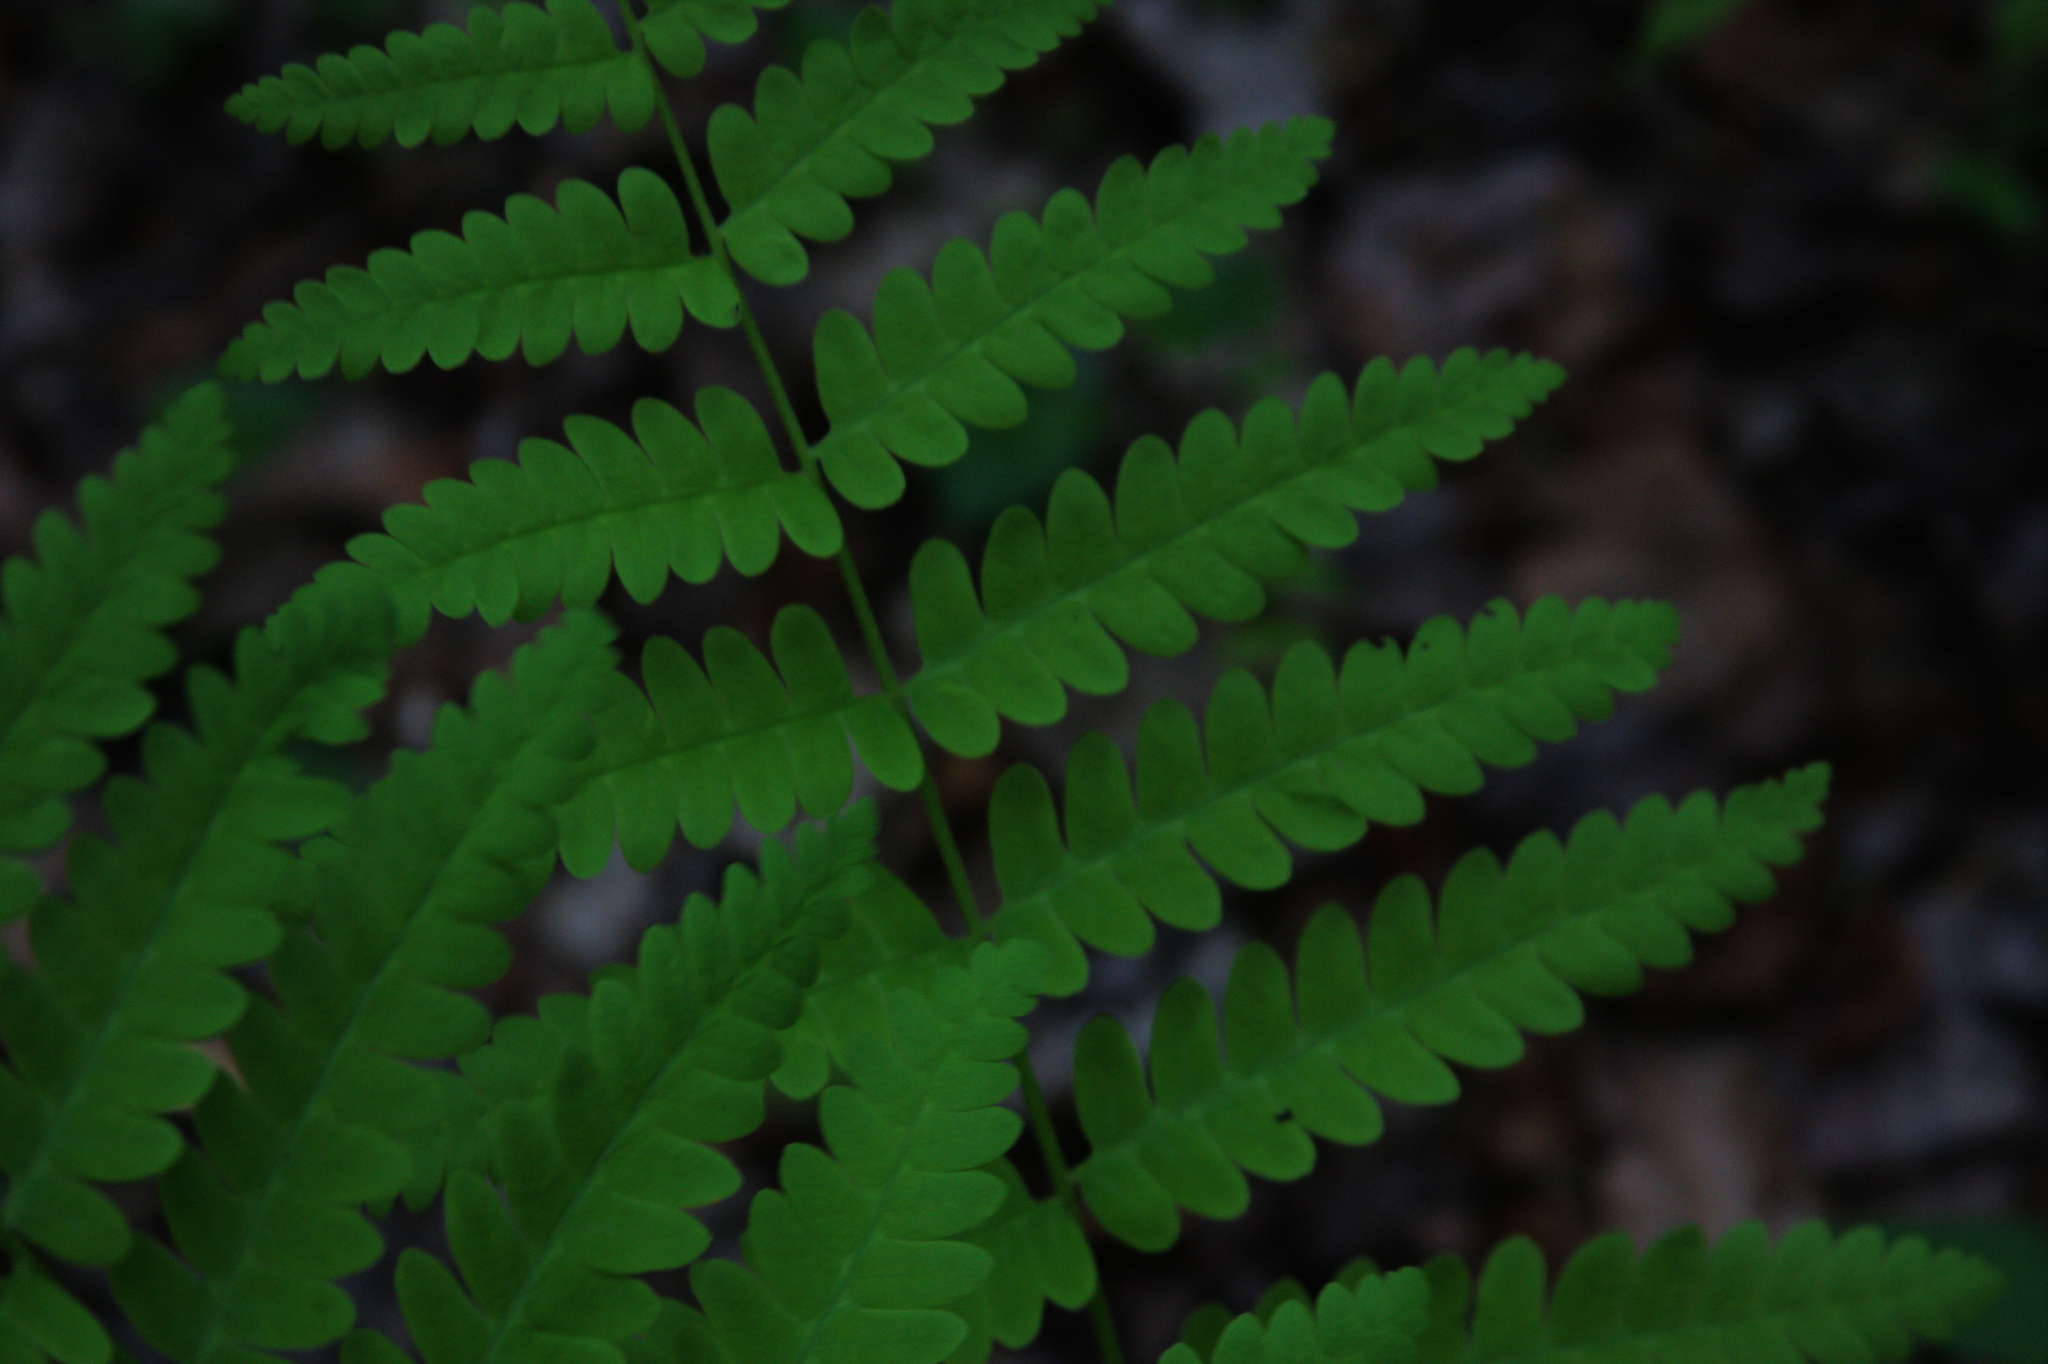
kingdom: Plantae
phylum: Tracheophyta
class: Polypodiopsida
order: Osmundales
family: Osmundaceae
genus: Claytosmunda
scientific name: Claytosmunda claytoniana
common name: Clayton's fern
